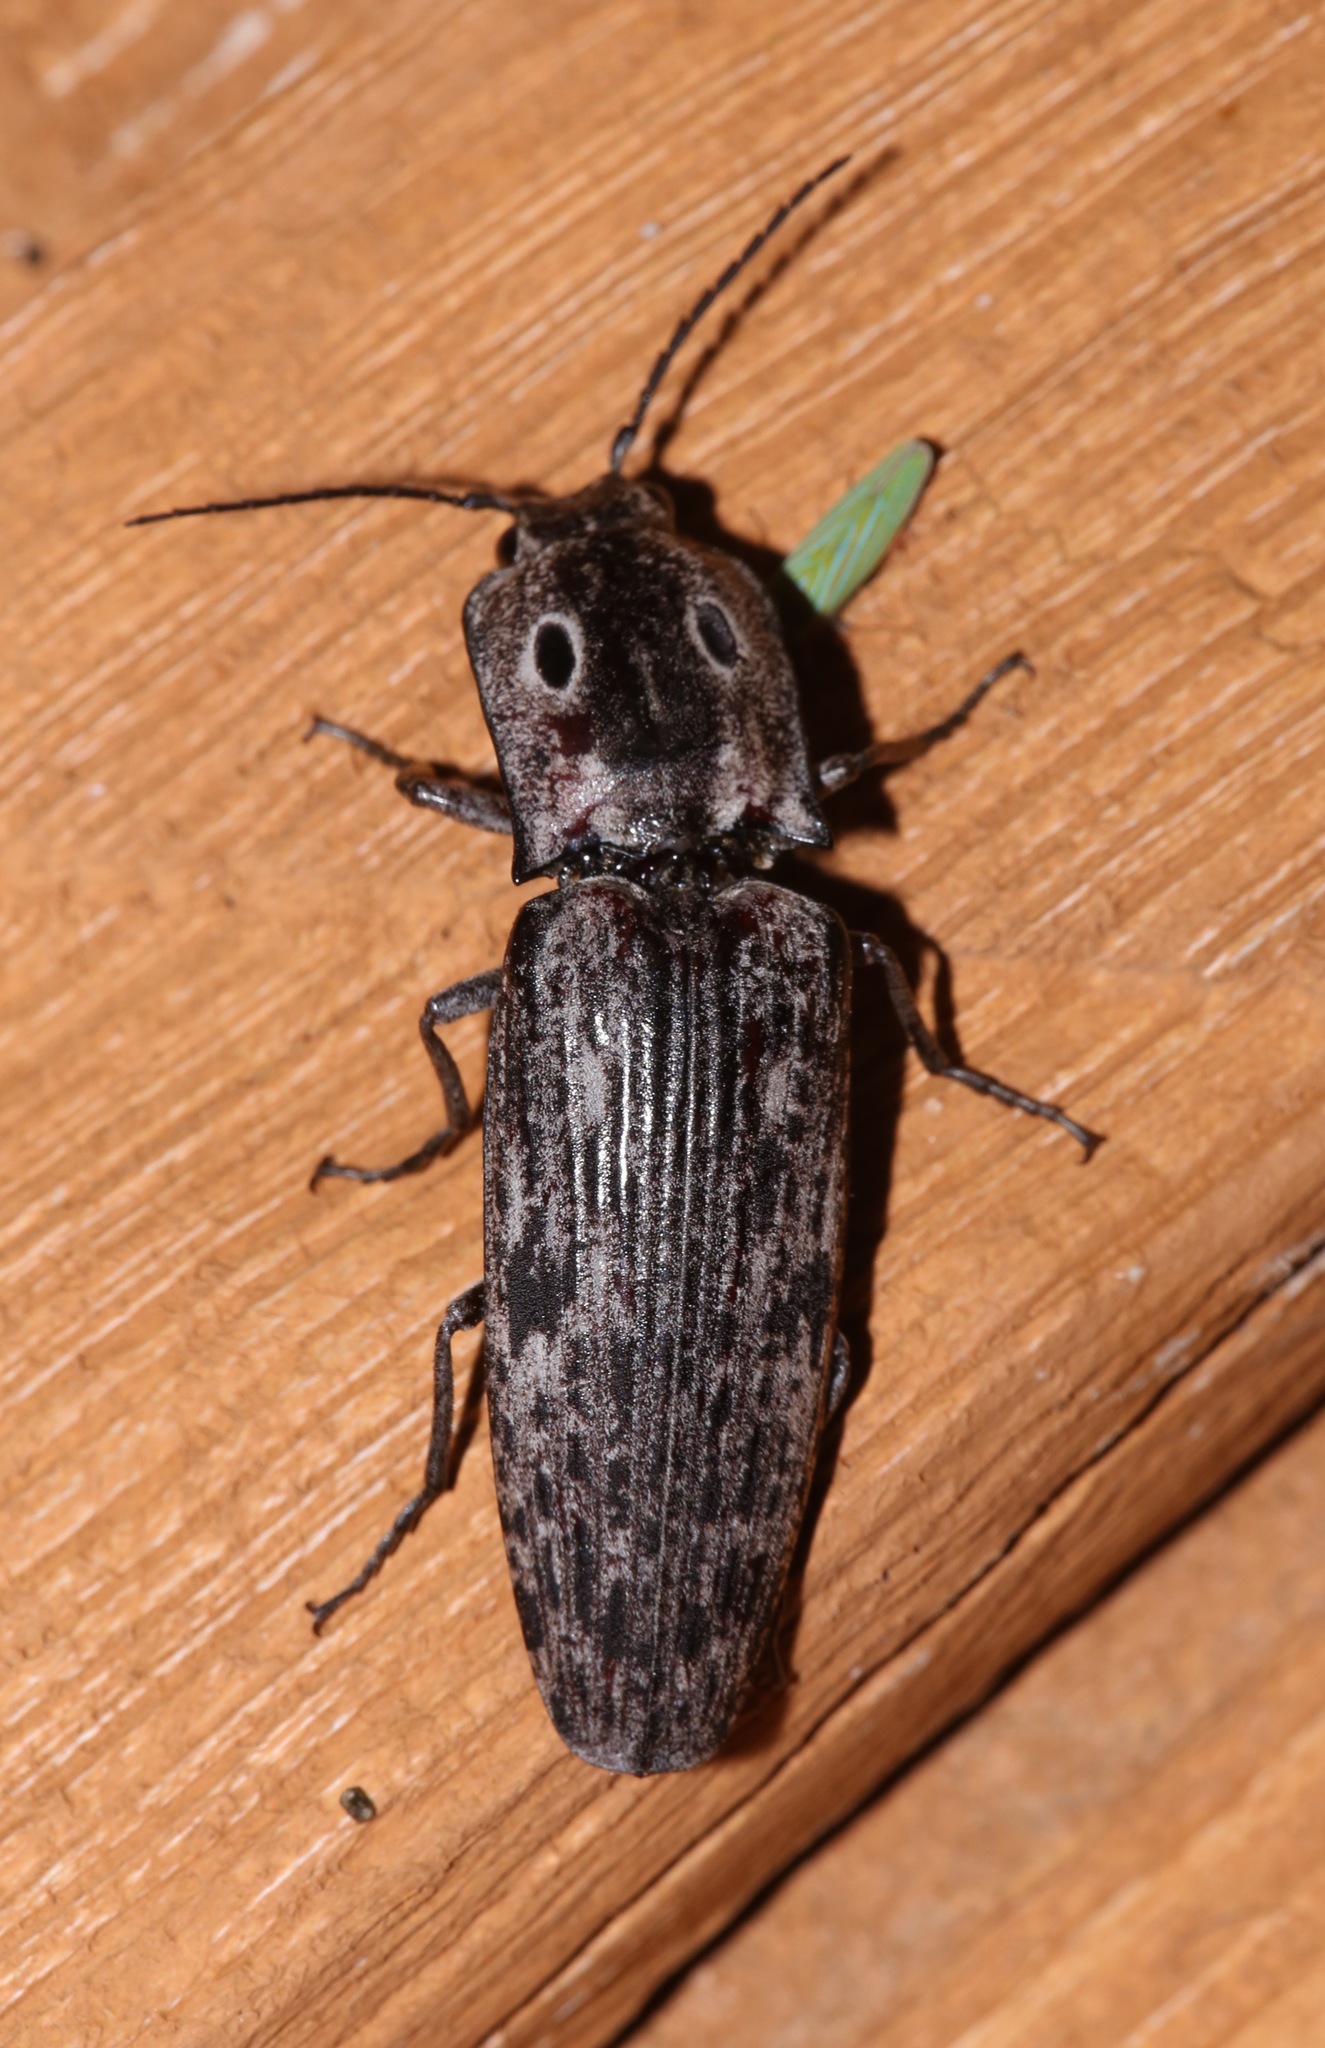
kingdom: Animalia
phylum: Arthropoda
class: Insecta
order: Coleoptera
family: Elateridae
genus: Alaus
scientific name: Alaus myops
